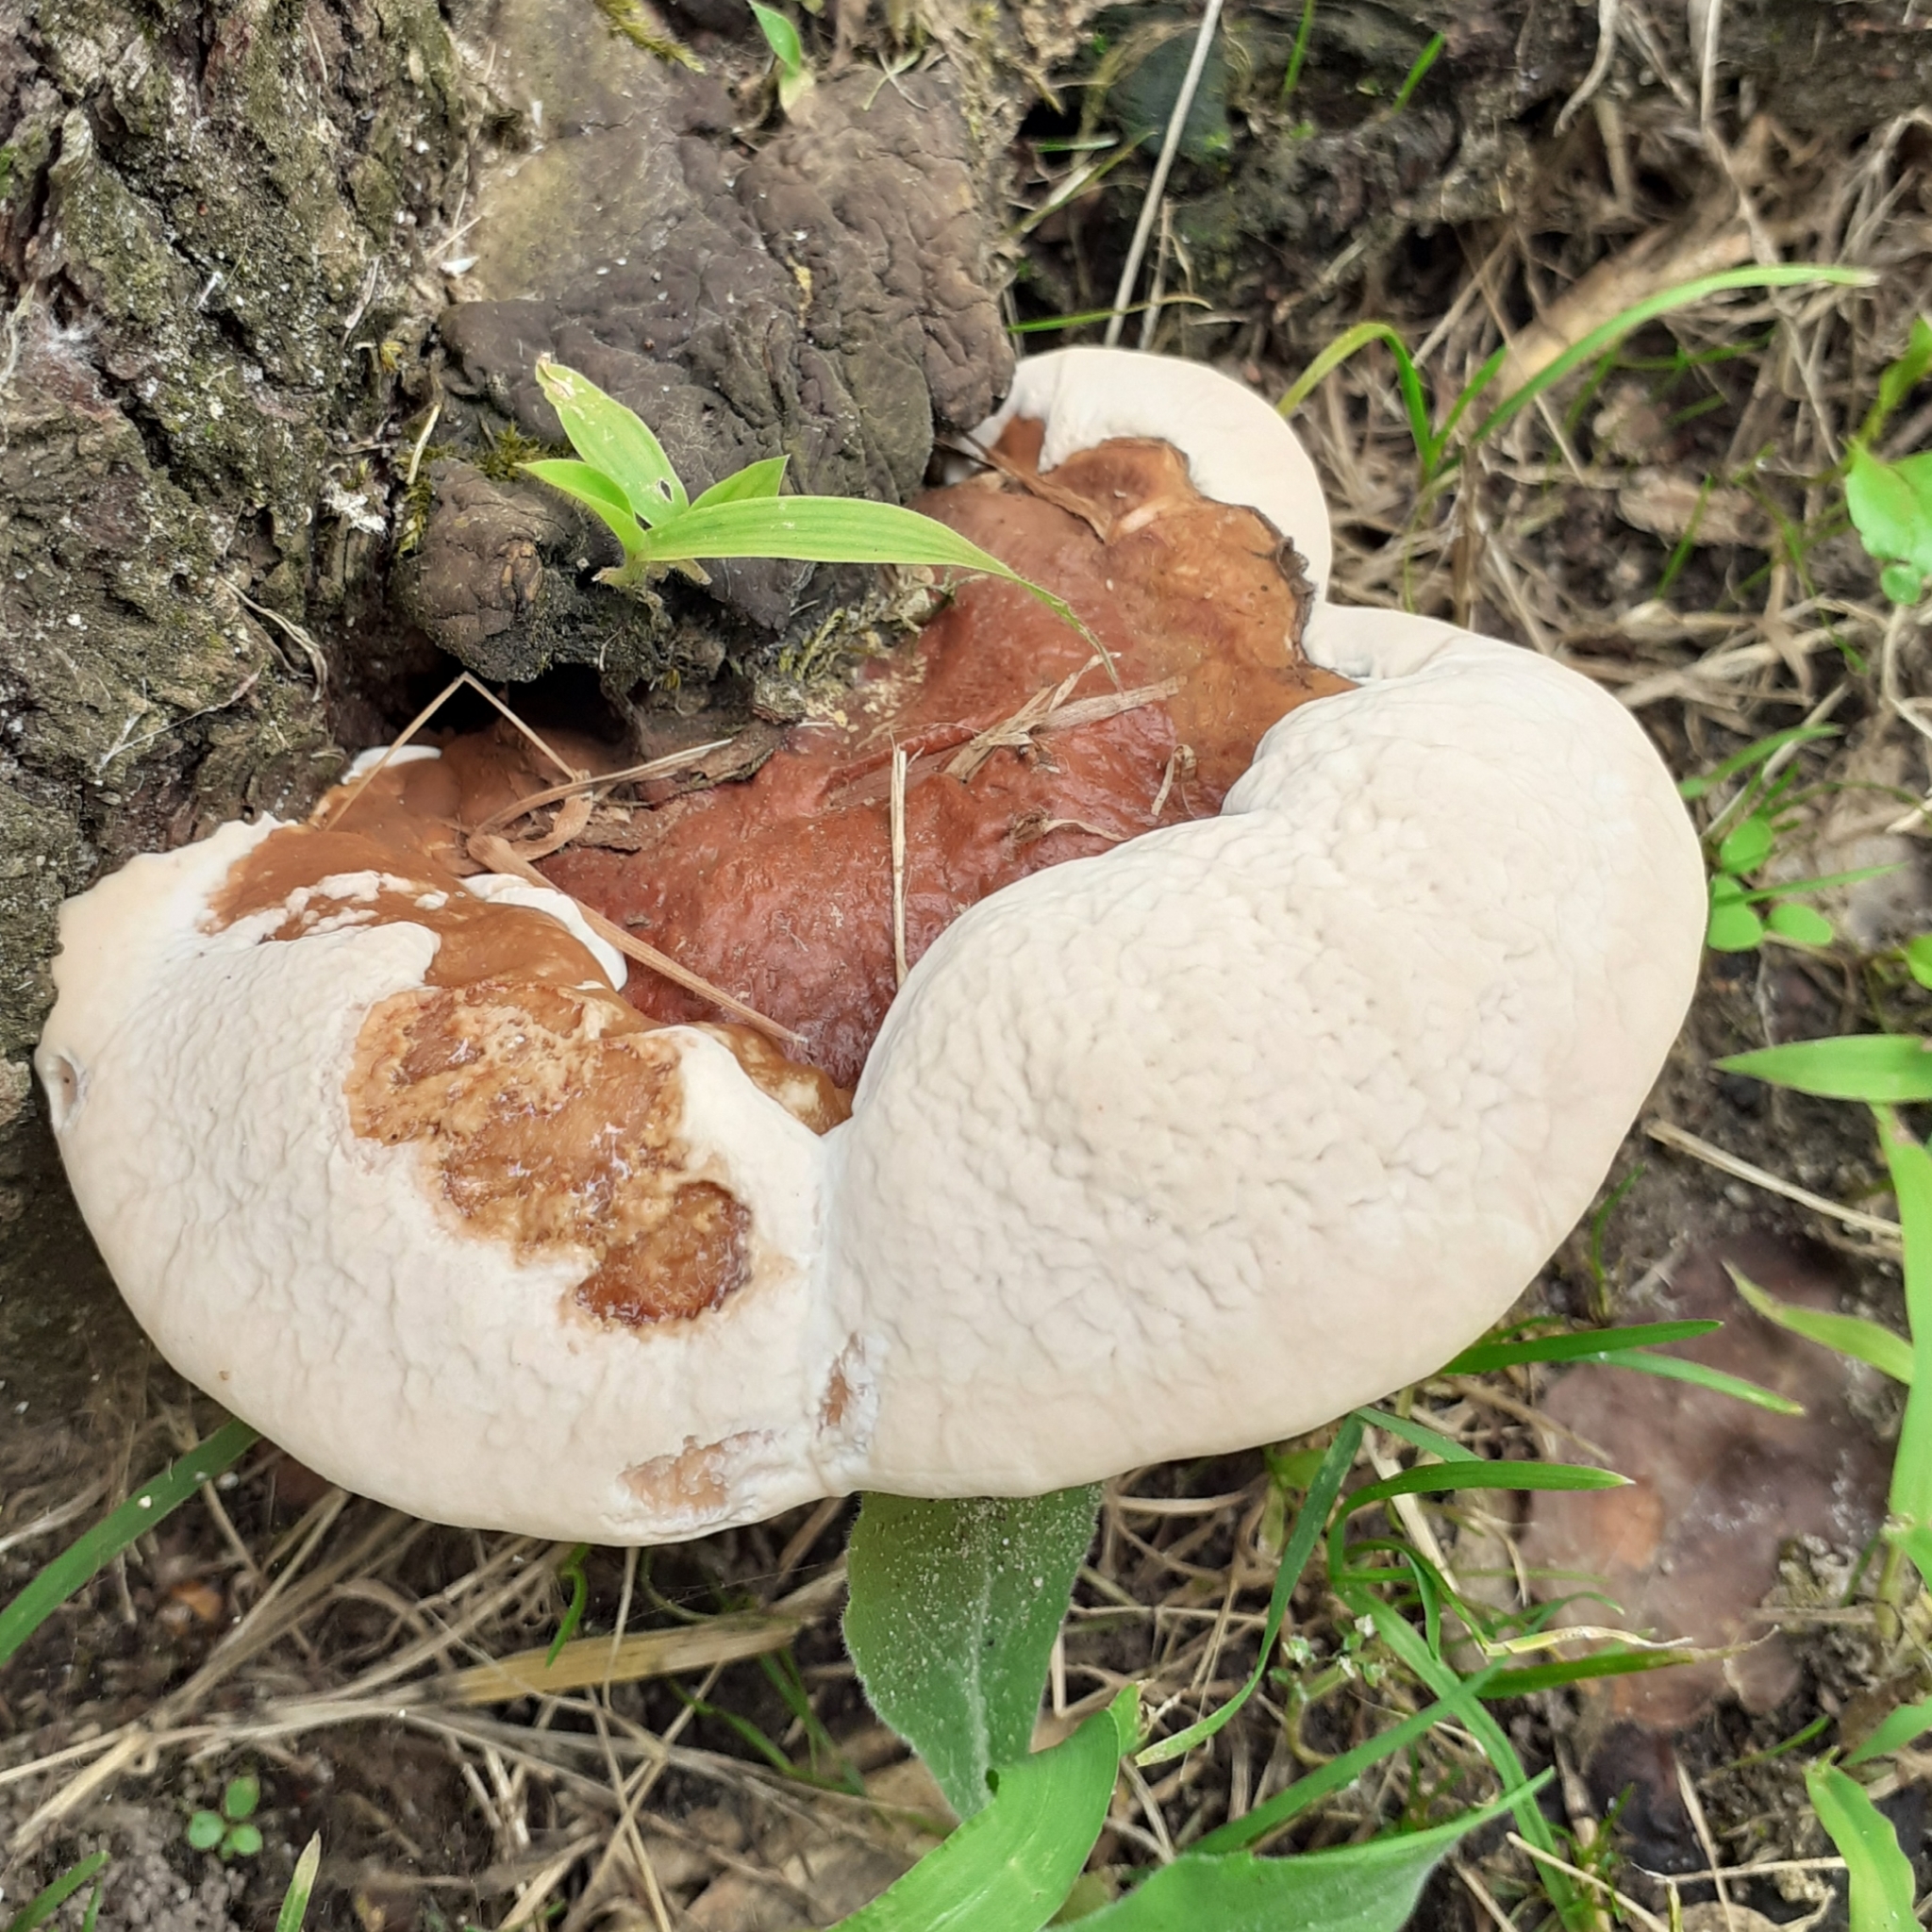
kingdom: Fungi
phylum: Basidiomycota
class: Agaricomycetes
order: Polyporales
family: Polyporaceae
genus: Ganoderma
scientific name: Ganoderma resinaceum
